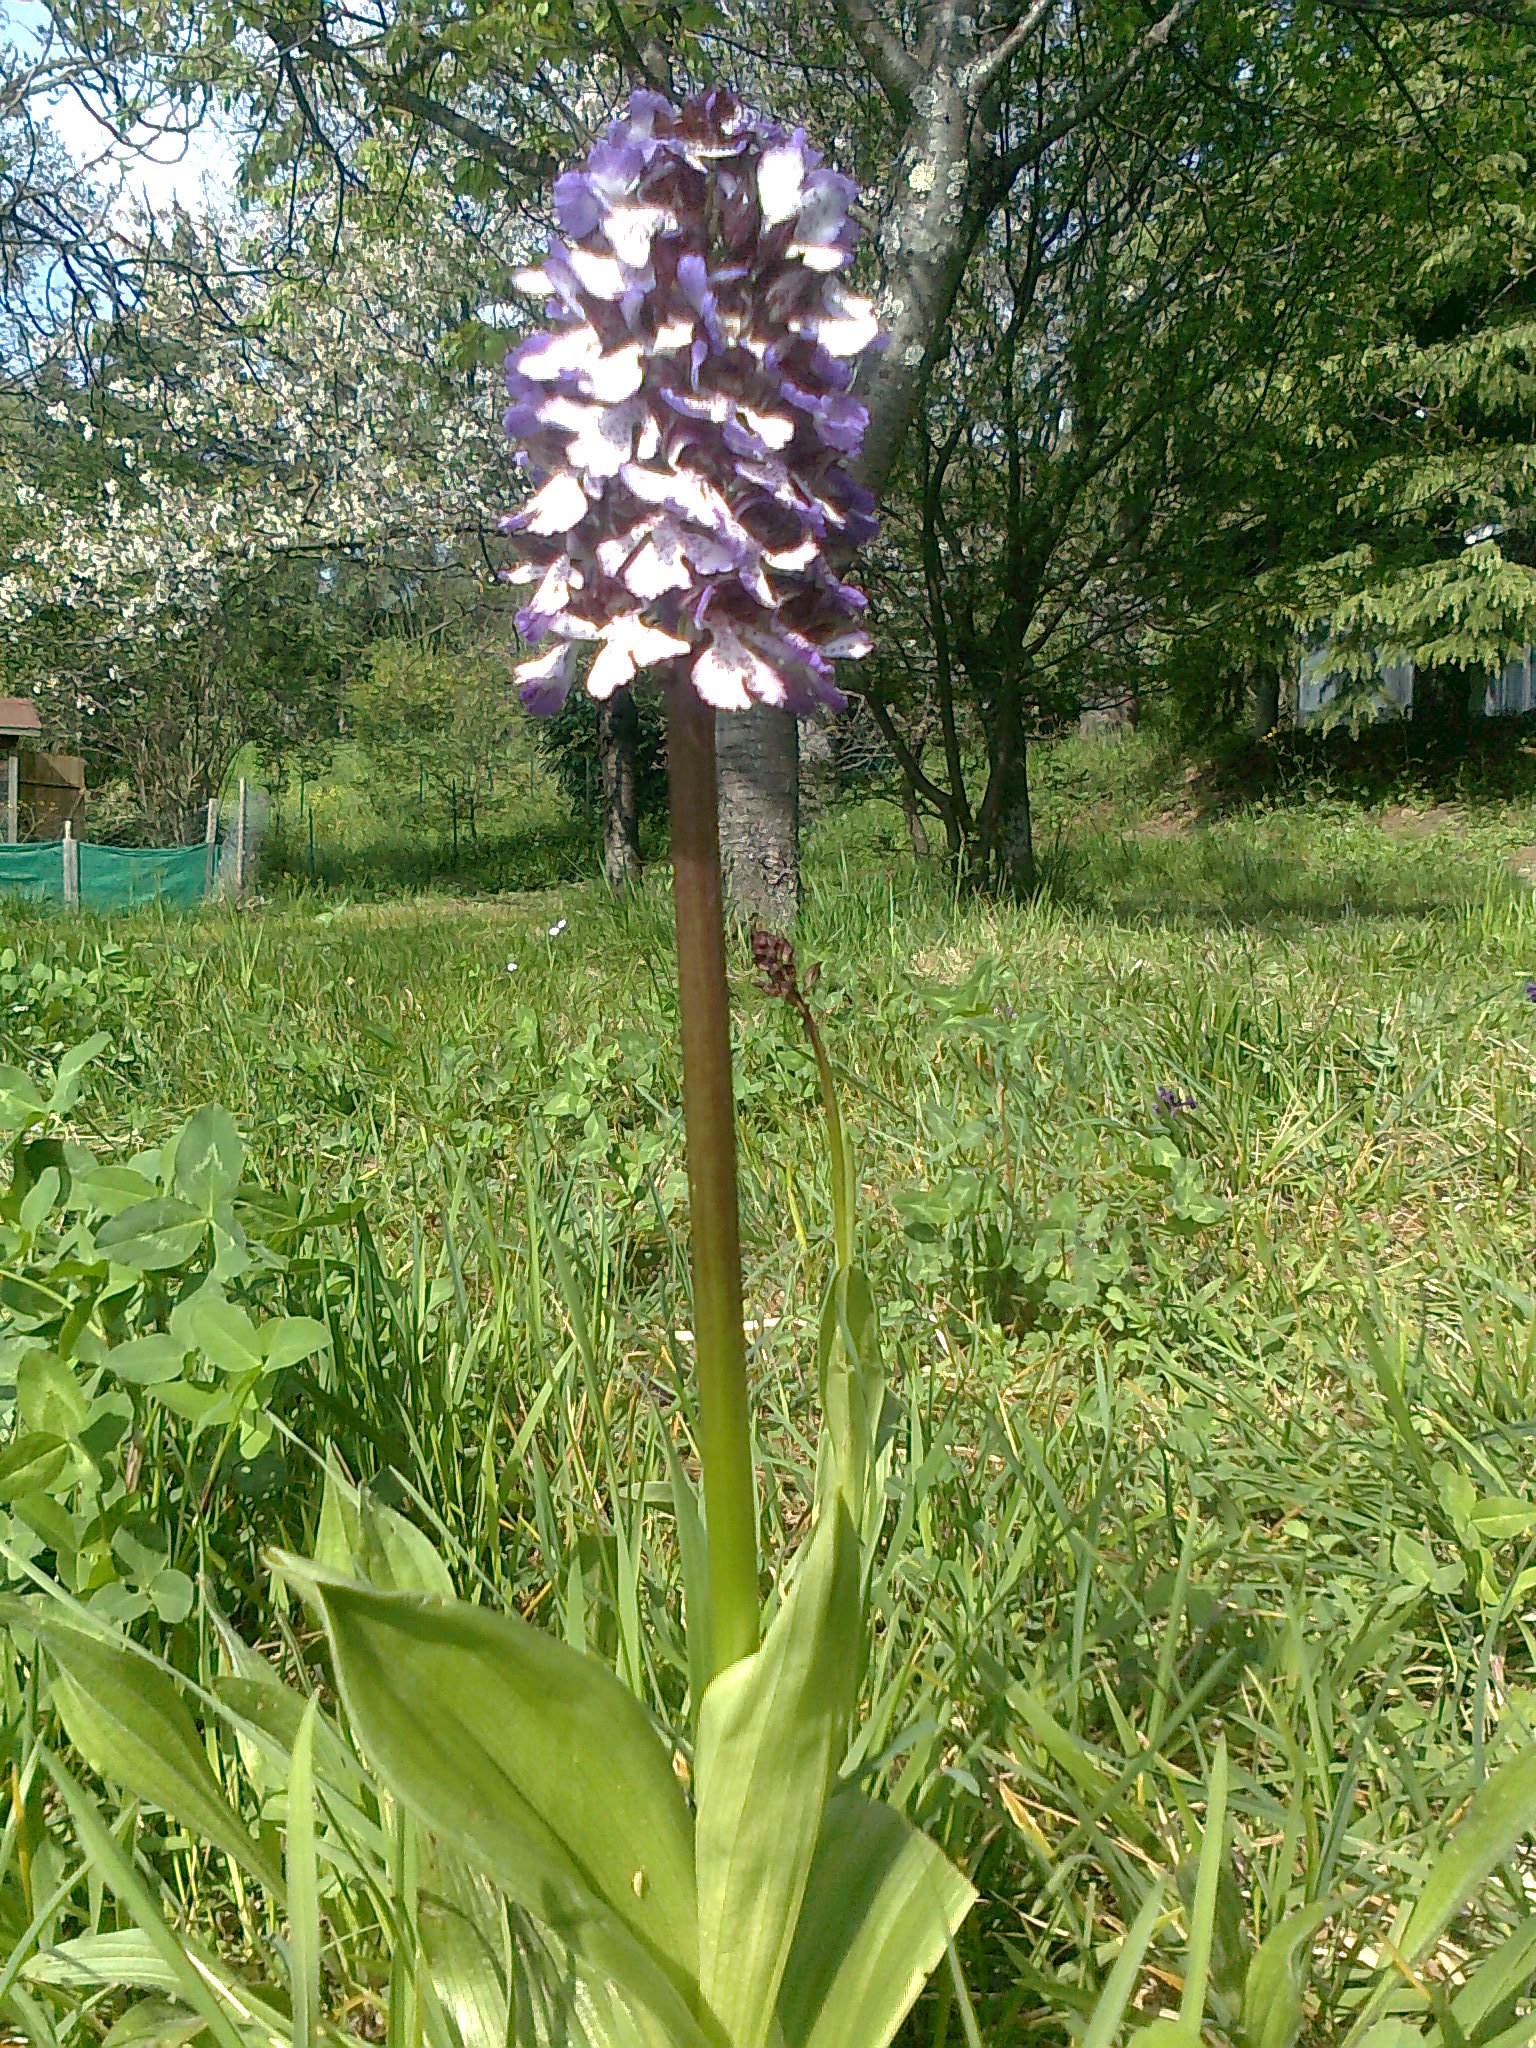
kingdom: Plantae
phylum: Tracheophyta
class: Liliopsida
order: Asparagales
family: Orchidaceae
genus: Orchis
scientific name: Orchis purpurea
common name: Lady orchid
